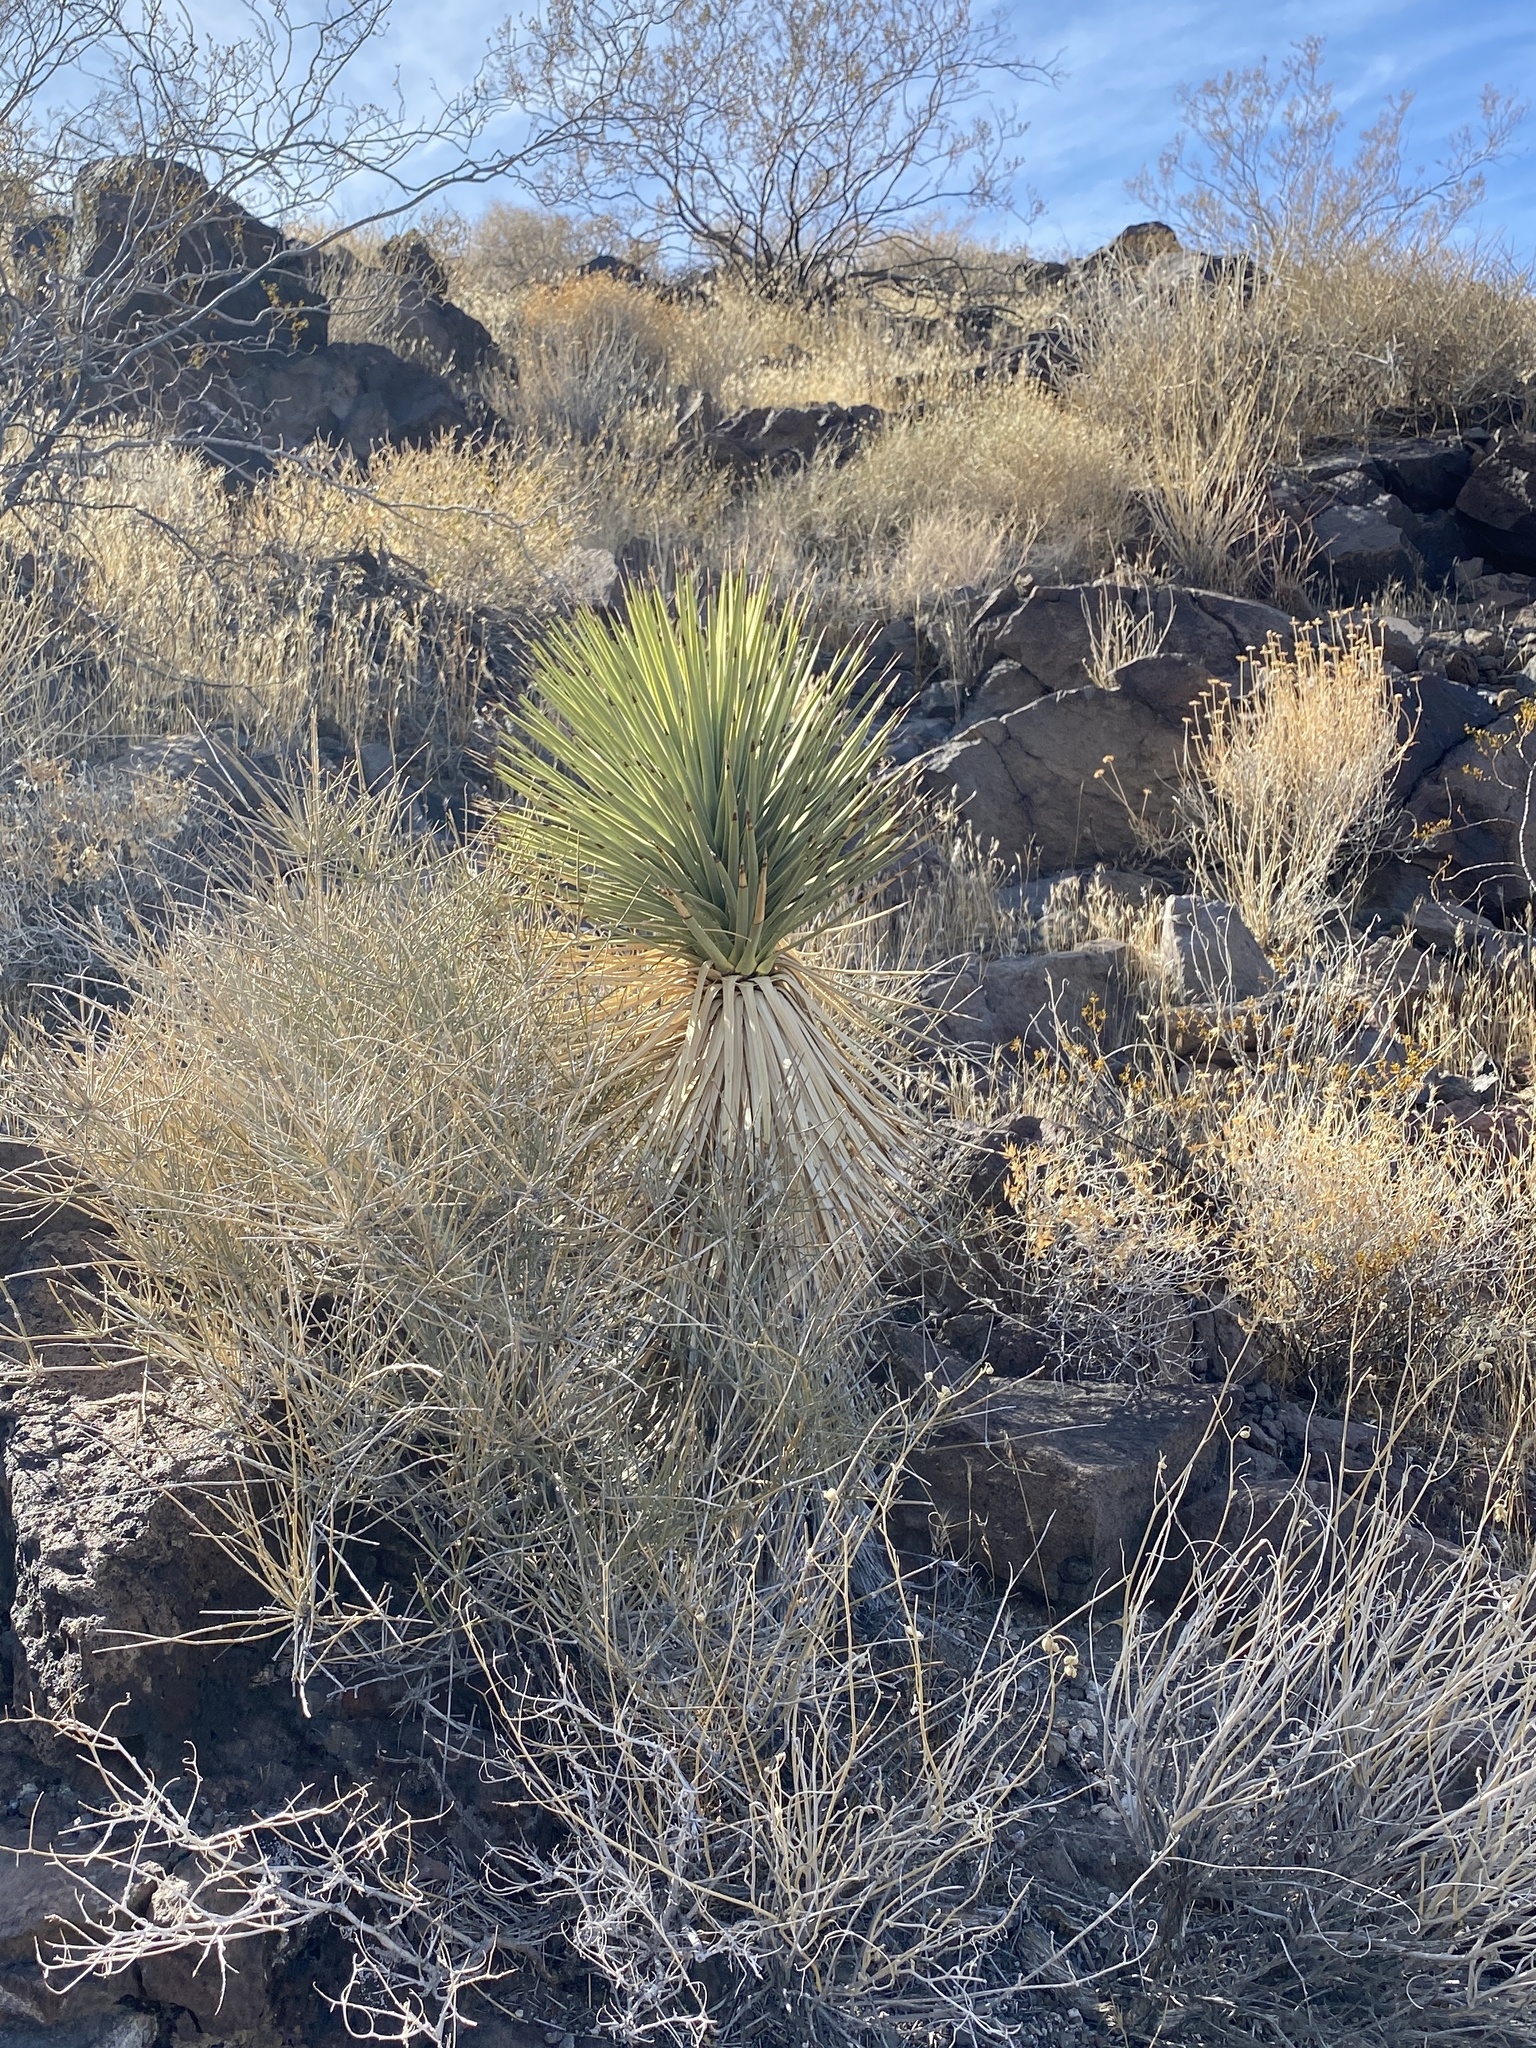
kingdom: Plantae
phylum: Tracheophyta
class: Liliopsida
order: Asparagales
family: Asparagaceae
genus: Yucca
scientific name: Yucca brevifolia
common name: Joshua tree
